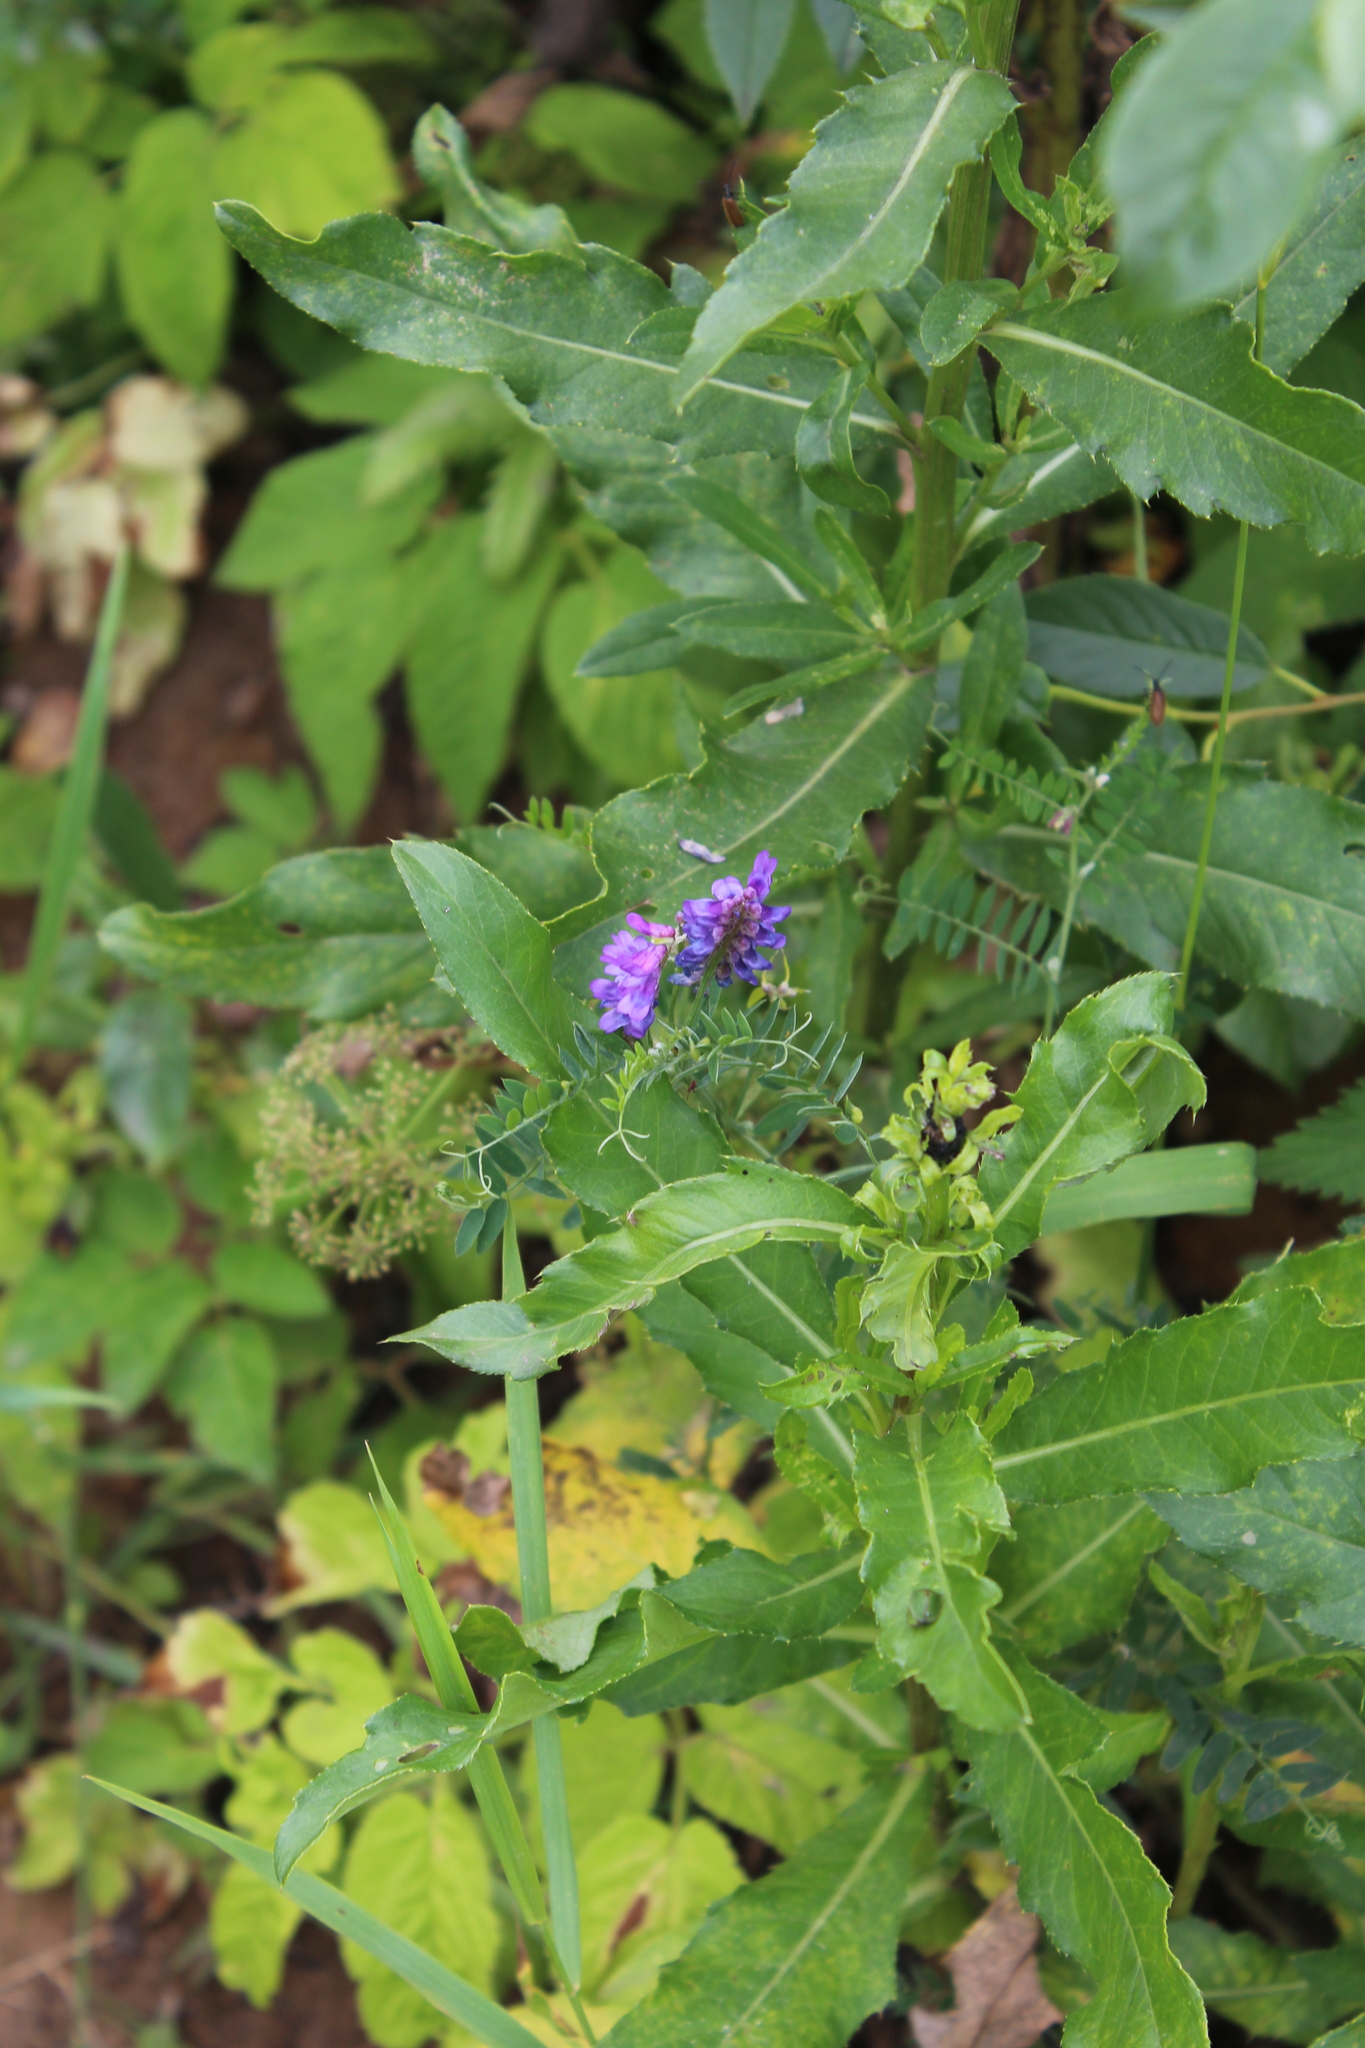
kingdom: Plantae
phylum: Tracheophyta
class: Magnoliopsida
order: Fabales
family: Fabaceae
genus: Vicia
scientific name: Vicia cracca
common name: Bird vetch
